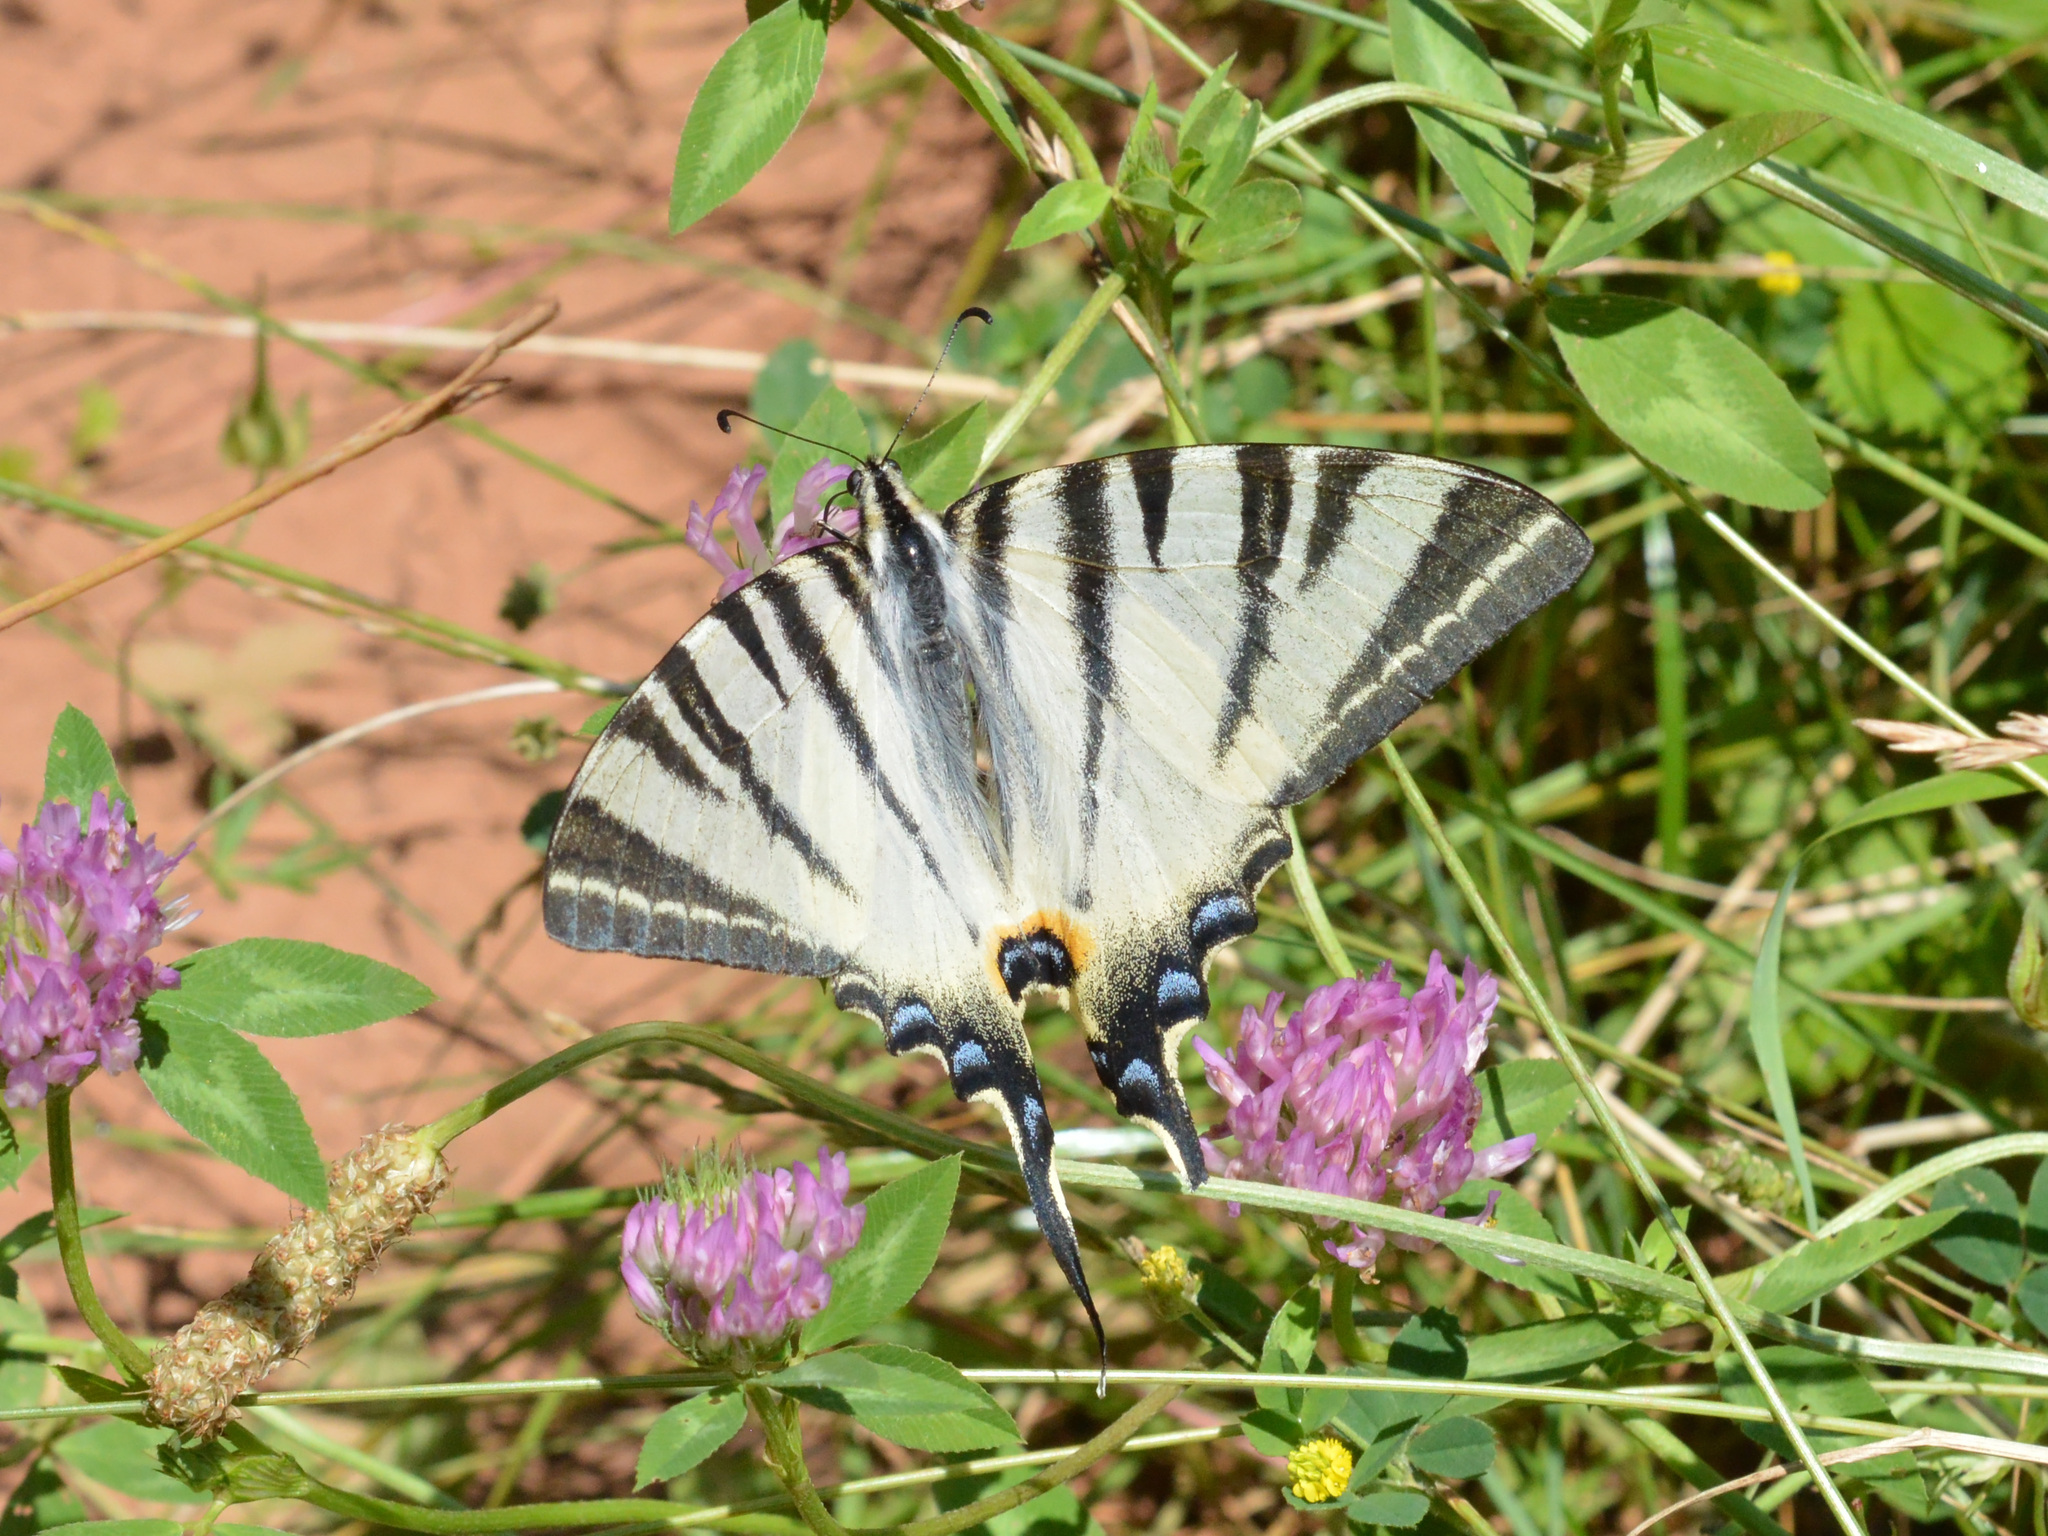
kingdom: Animalia
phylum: Arthropoda
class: Insecta
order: Lepidoptera
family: Papilionidae
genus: Iphiclides
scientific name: Iphiclides podalirius
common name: Scarce swallowtail
